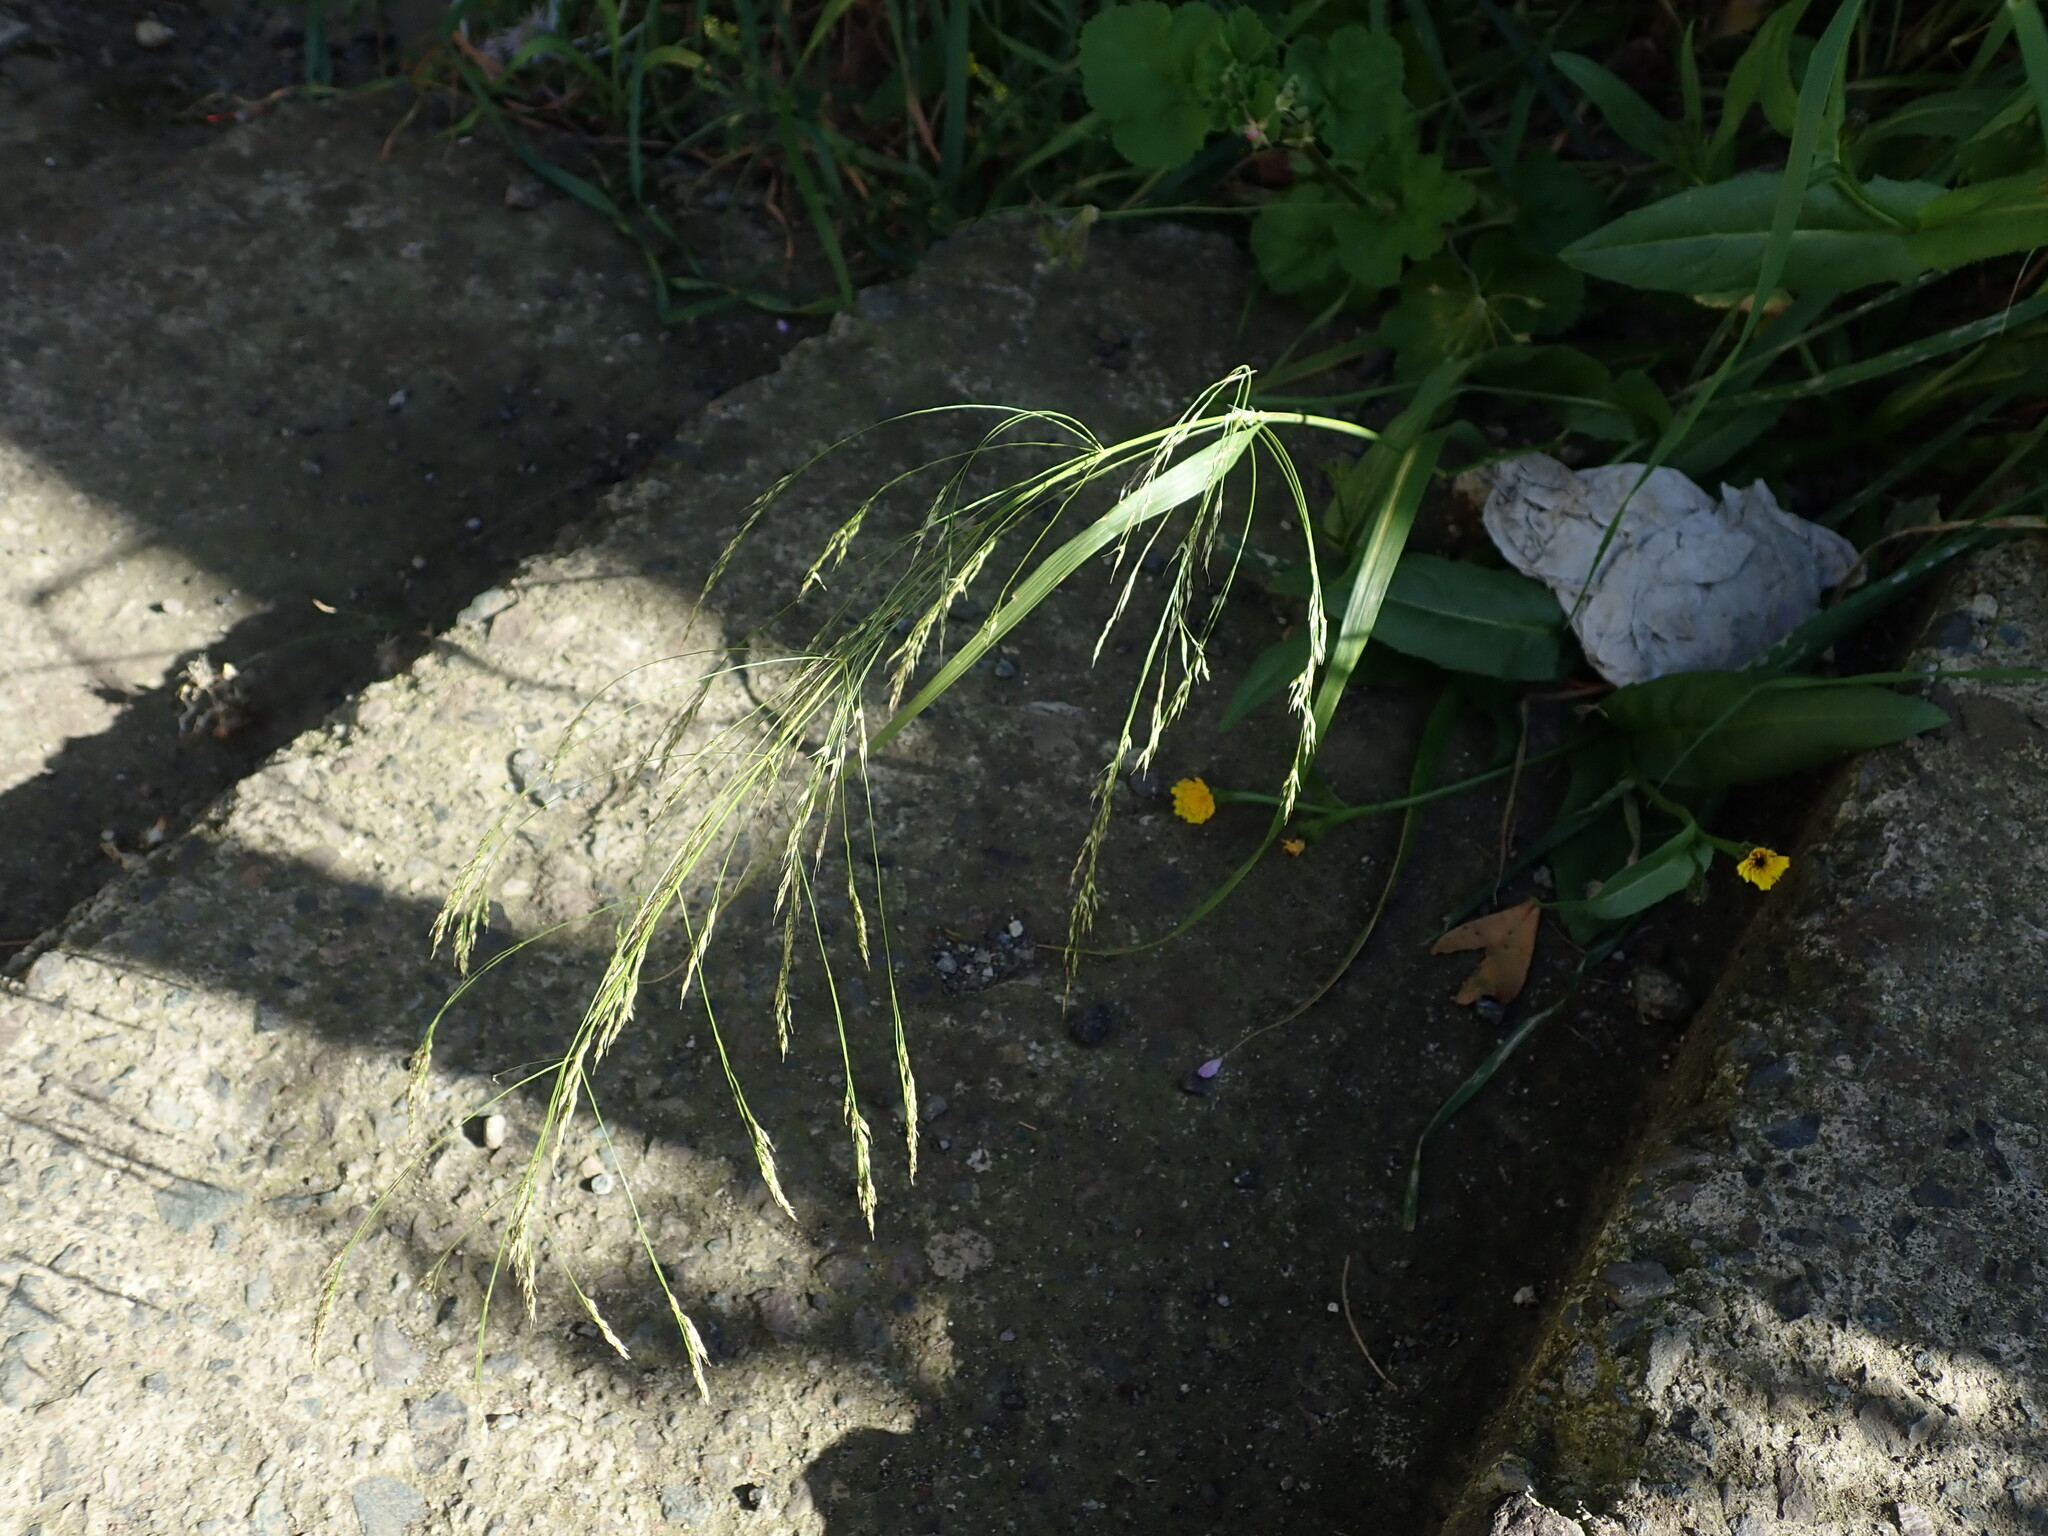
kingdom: Plantae
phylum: Tracheophyta
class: Liliopsida
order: Poales
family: Poaceae
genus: Oloptum
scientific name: Oloptum miliaceum
